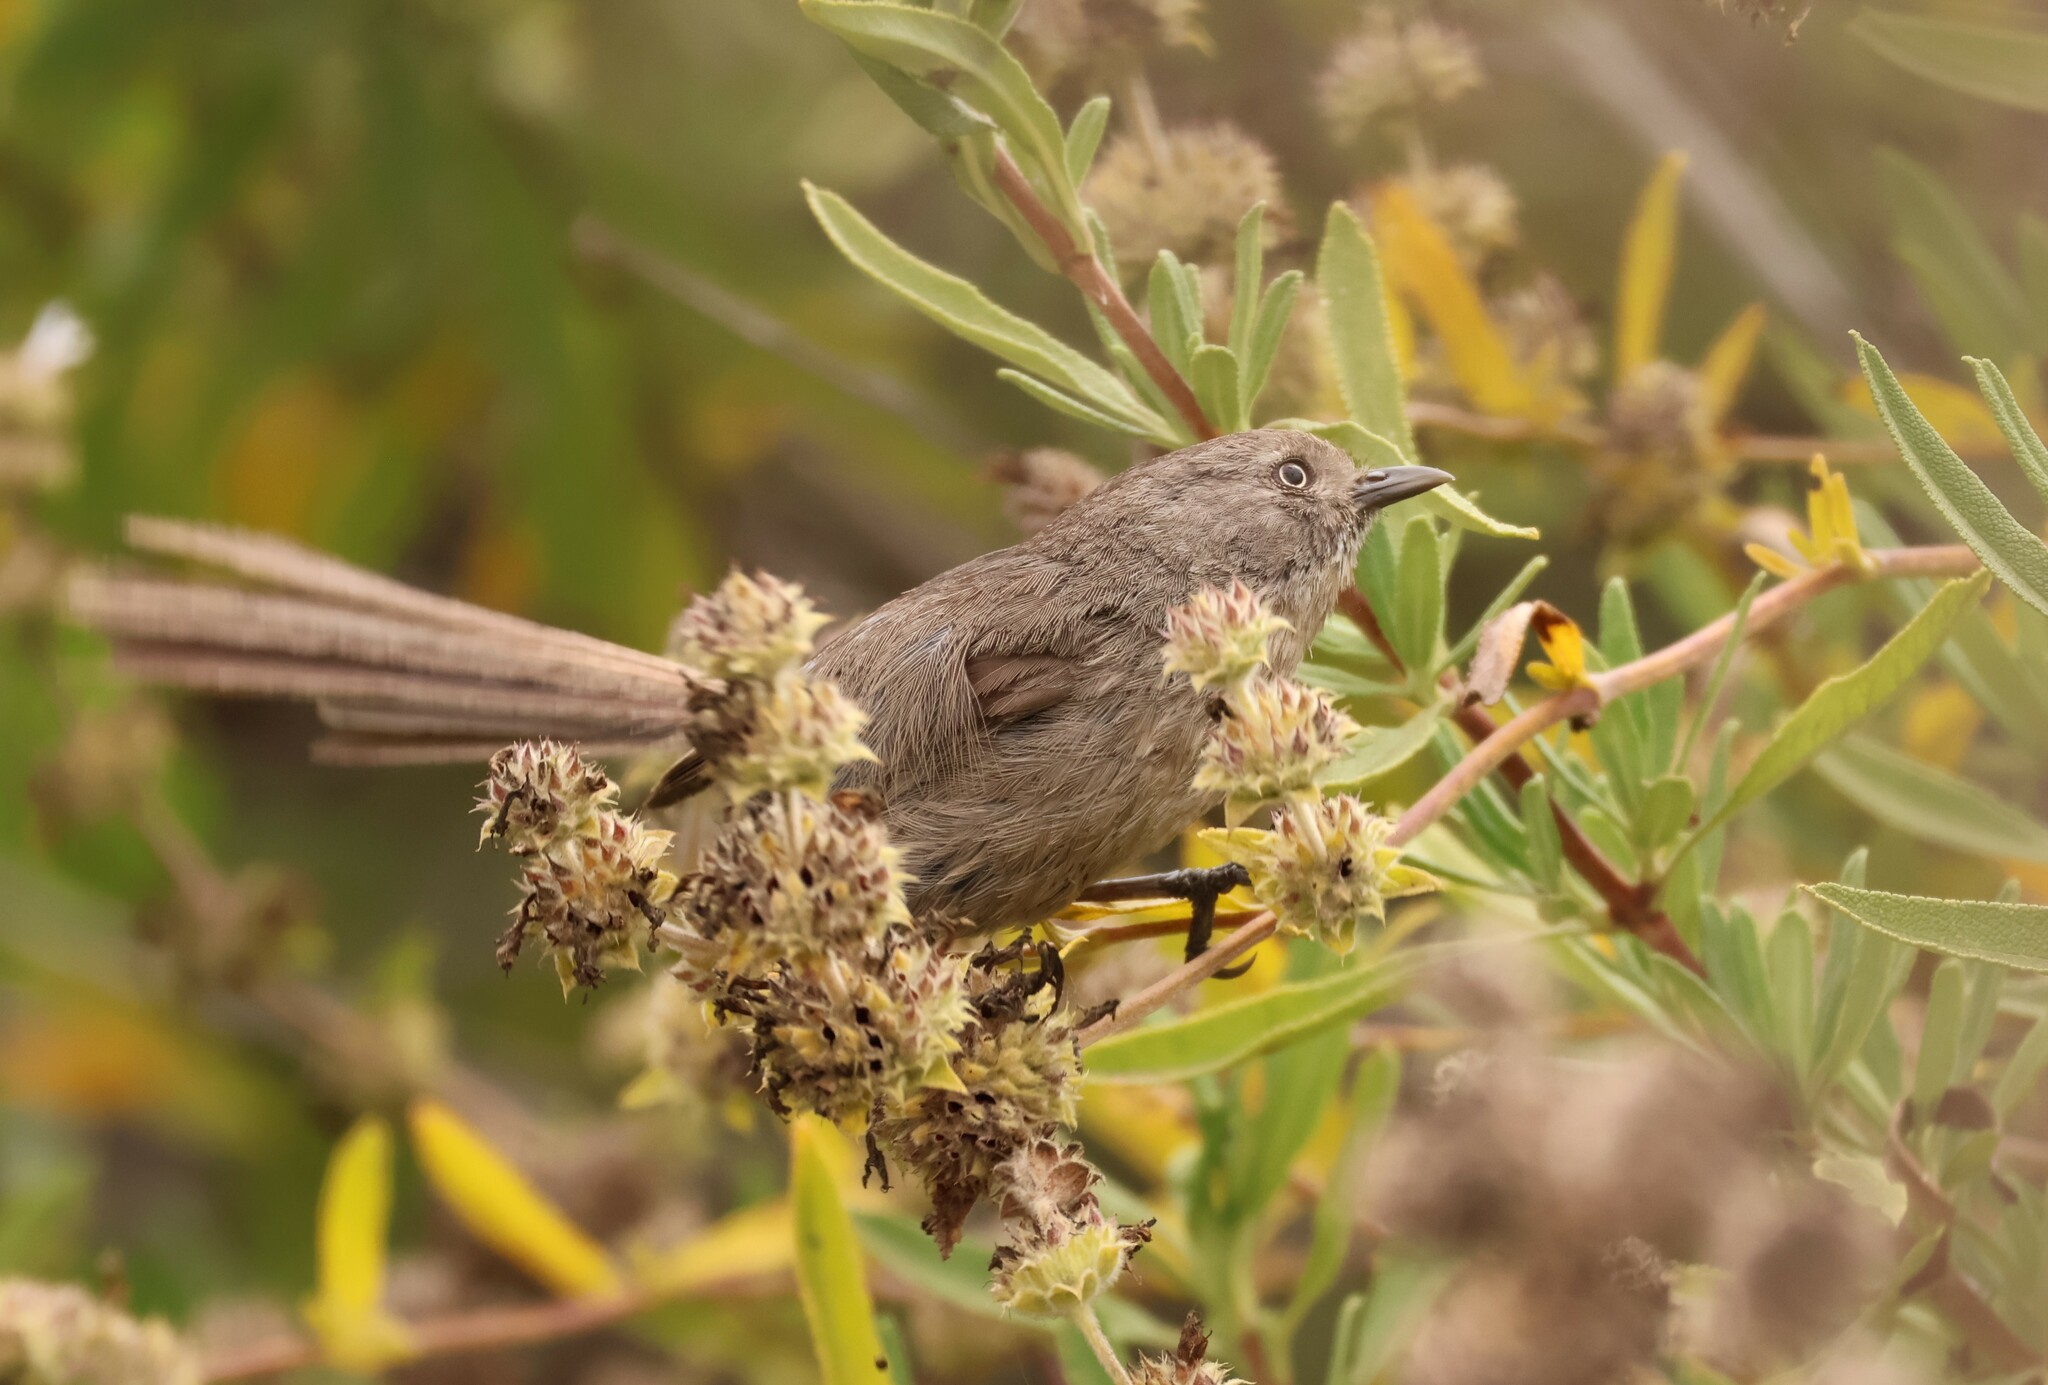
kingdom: Animalia
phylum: Chordata
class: Aves
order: Passeriformes
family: Sylviidae
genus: Chamaea
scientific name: Chamaea fasciata
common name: Wrentit
